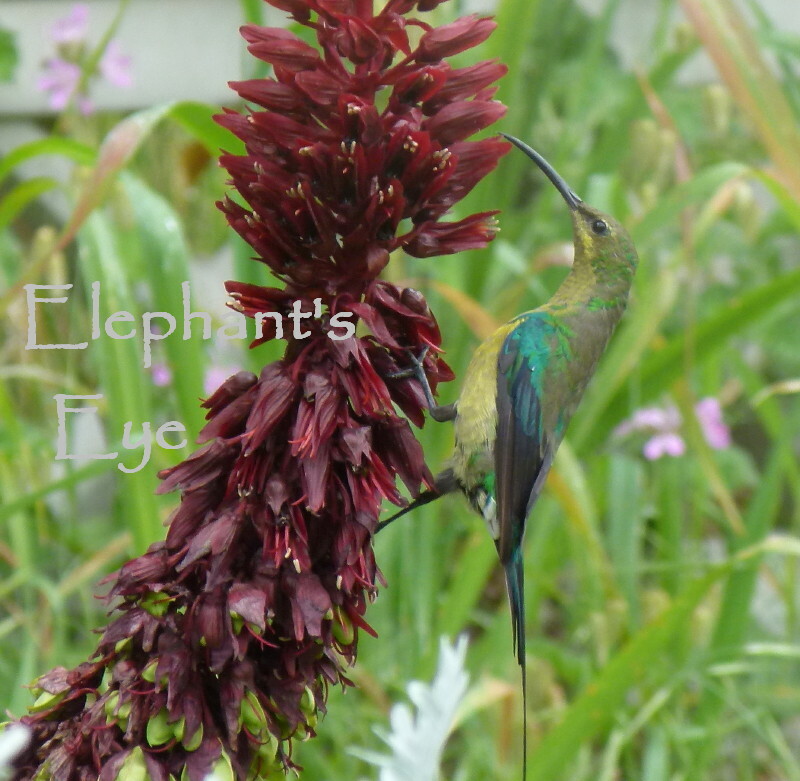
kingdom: Animalia
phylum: Chordata
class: Aves
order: Passeriformes
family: Nectariniidae
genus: Nectarinia
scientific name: Nectarinia famosa
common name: Malachite sunbird
